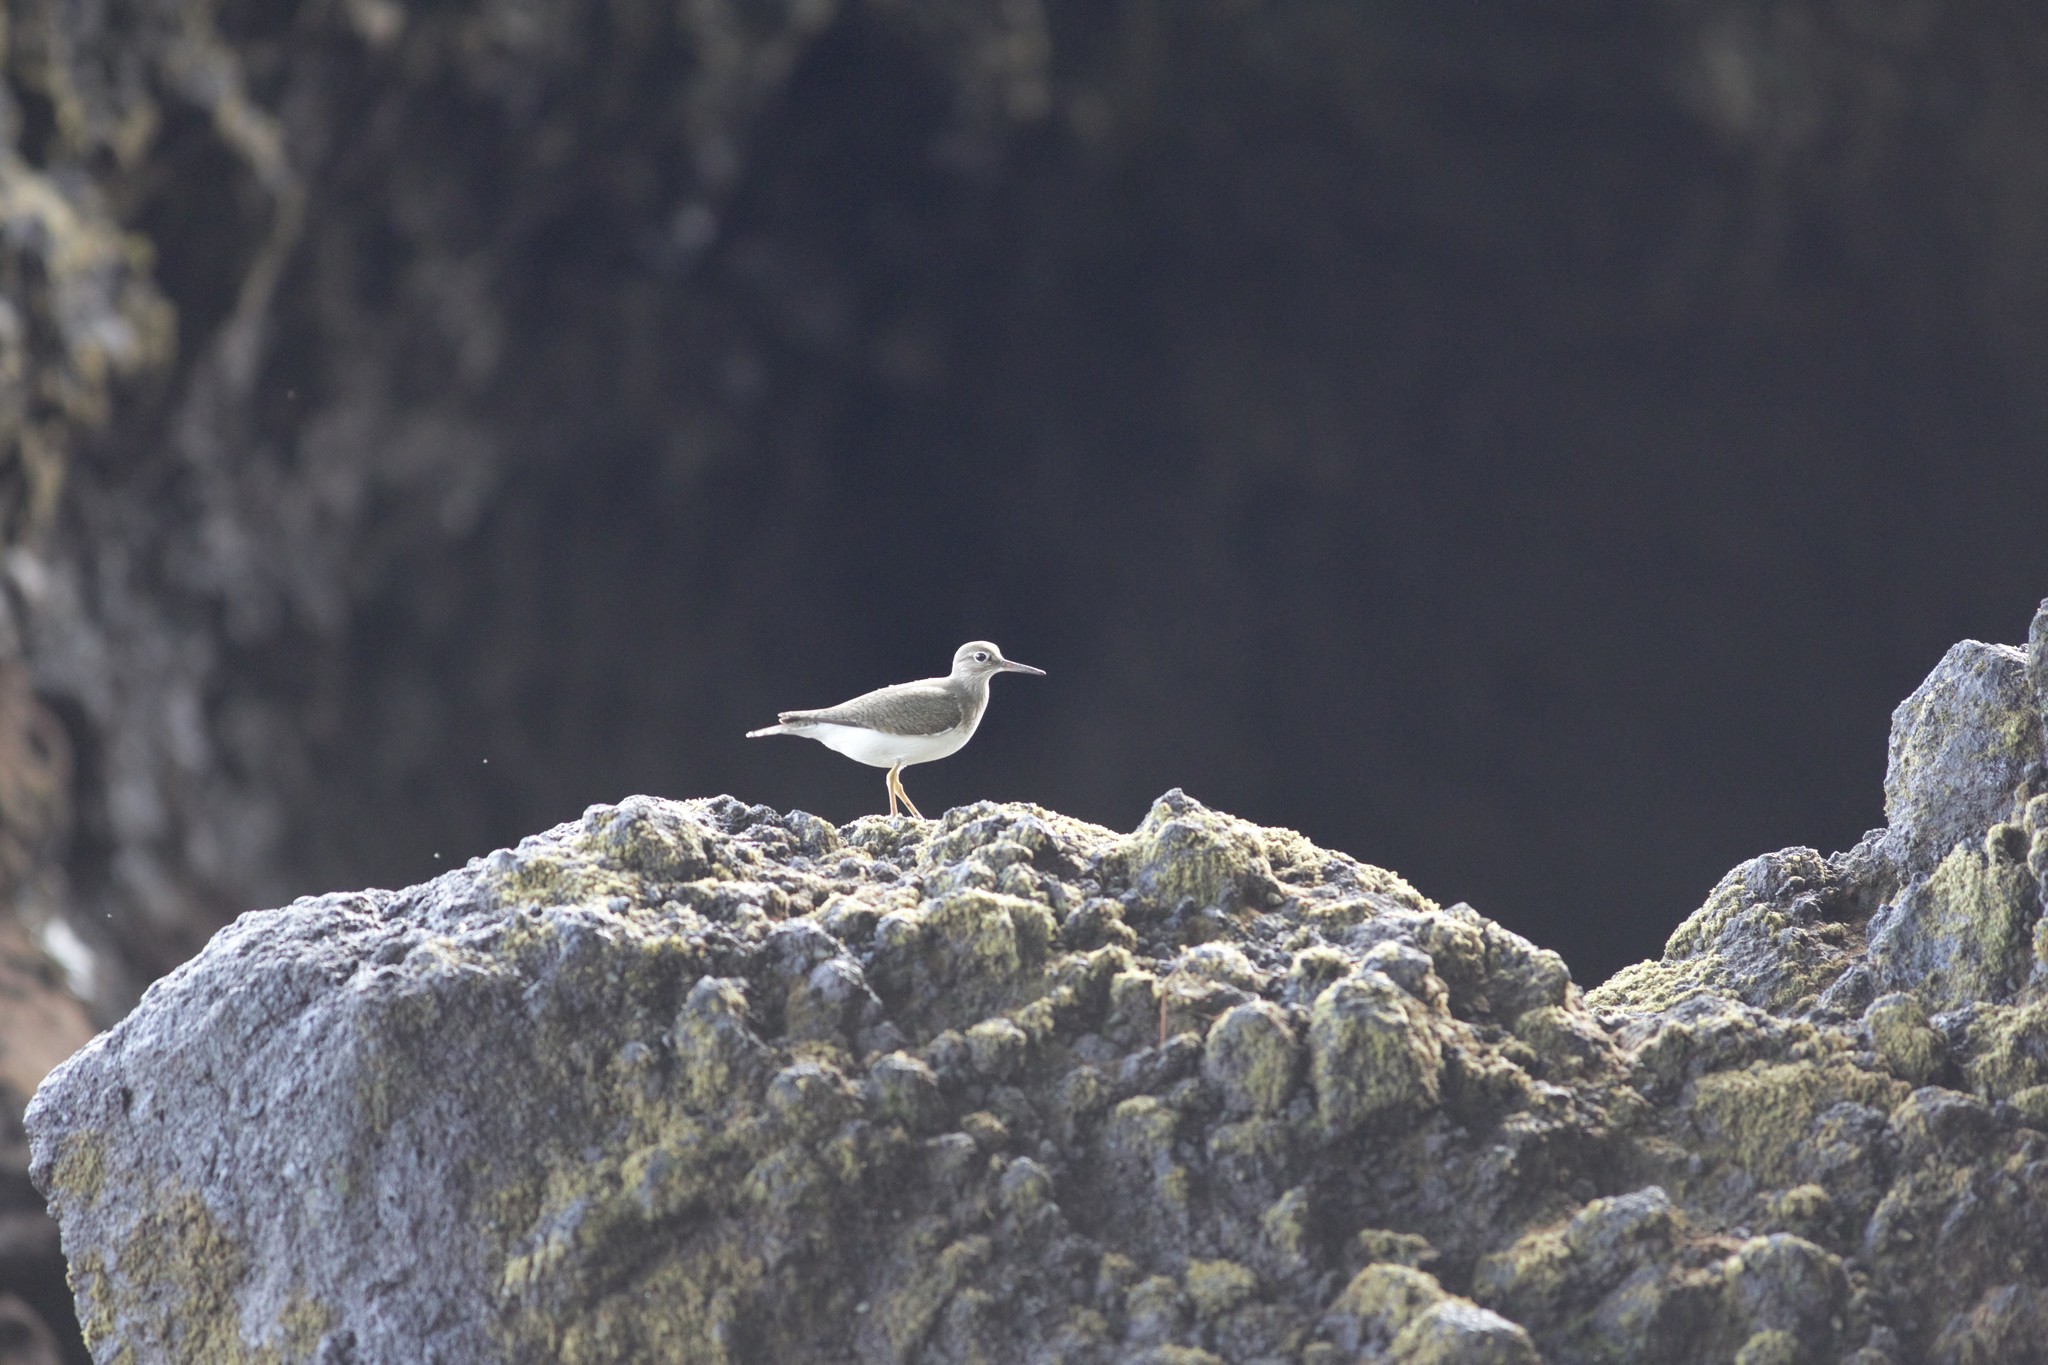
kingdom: Animalia
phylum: Chordata
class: Aves
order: Charadriiformes
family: Scolopacidae
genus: Actitis
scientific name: Actitis hypoleucos
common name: Common sandpiper
